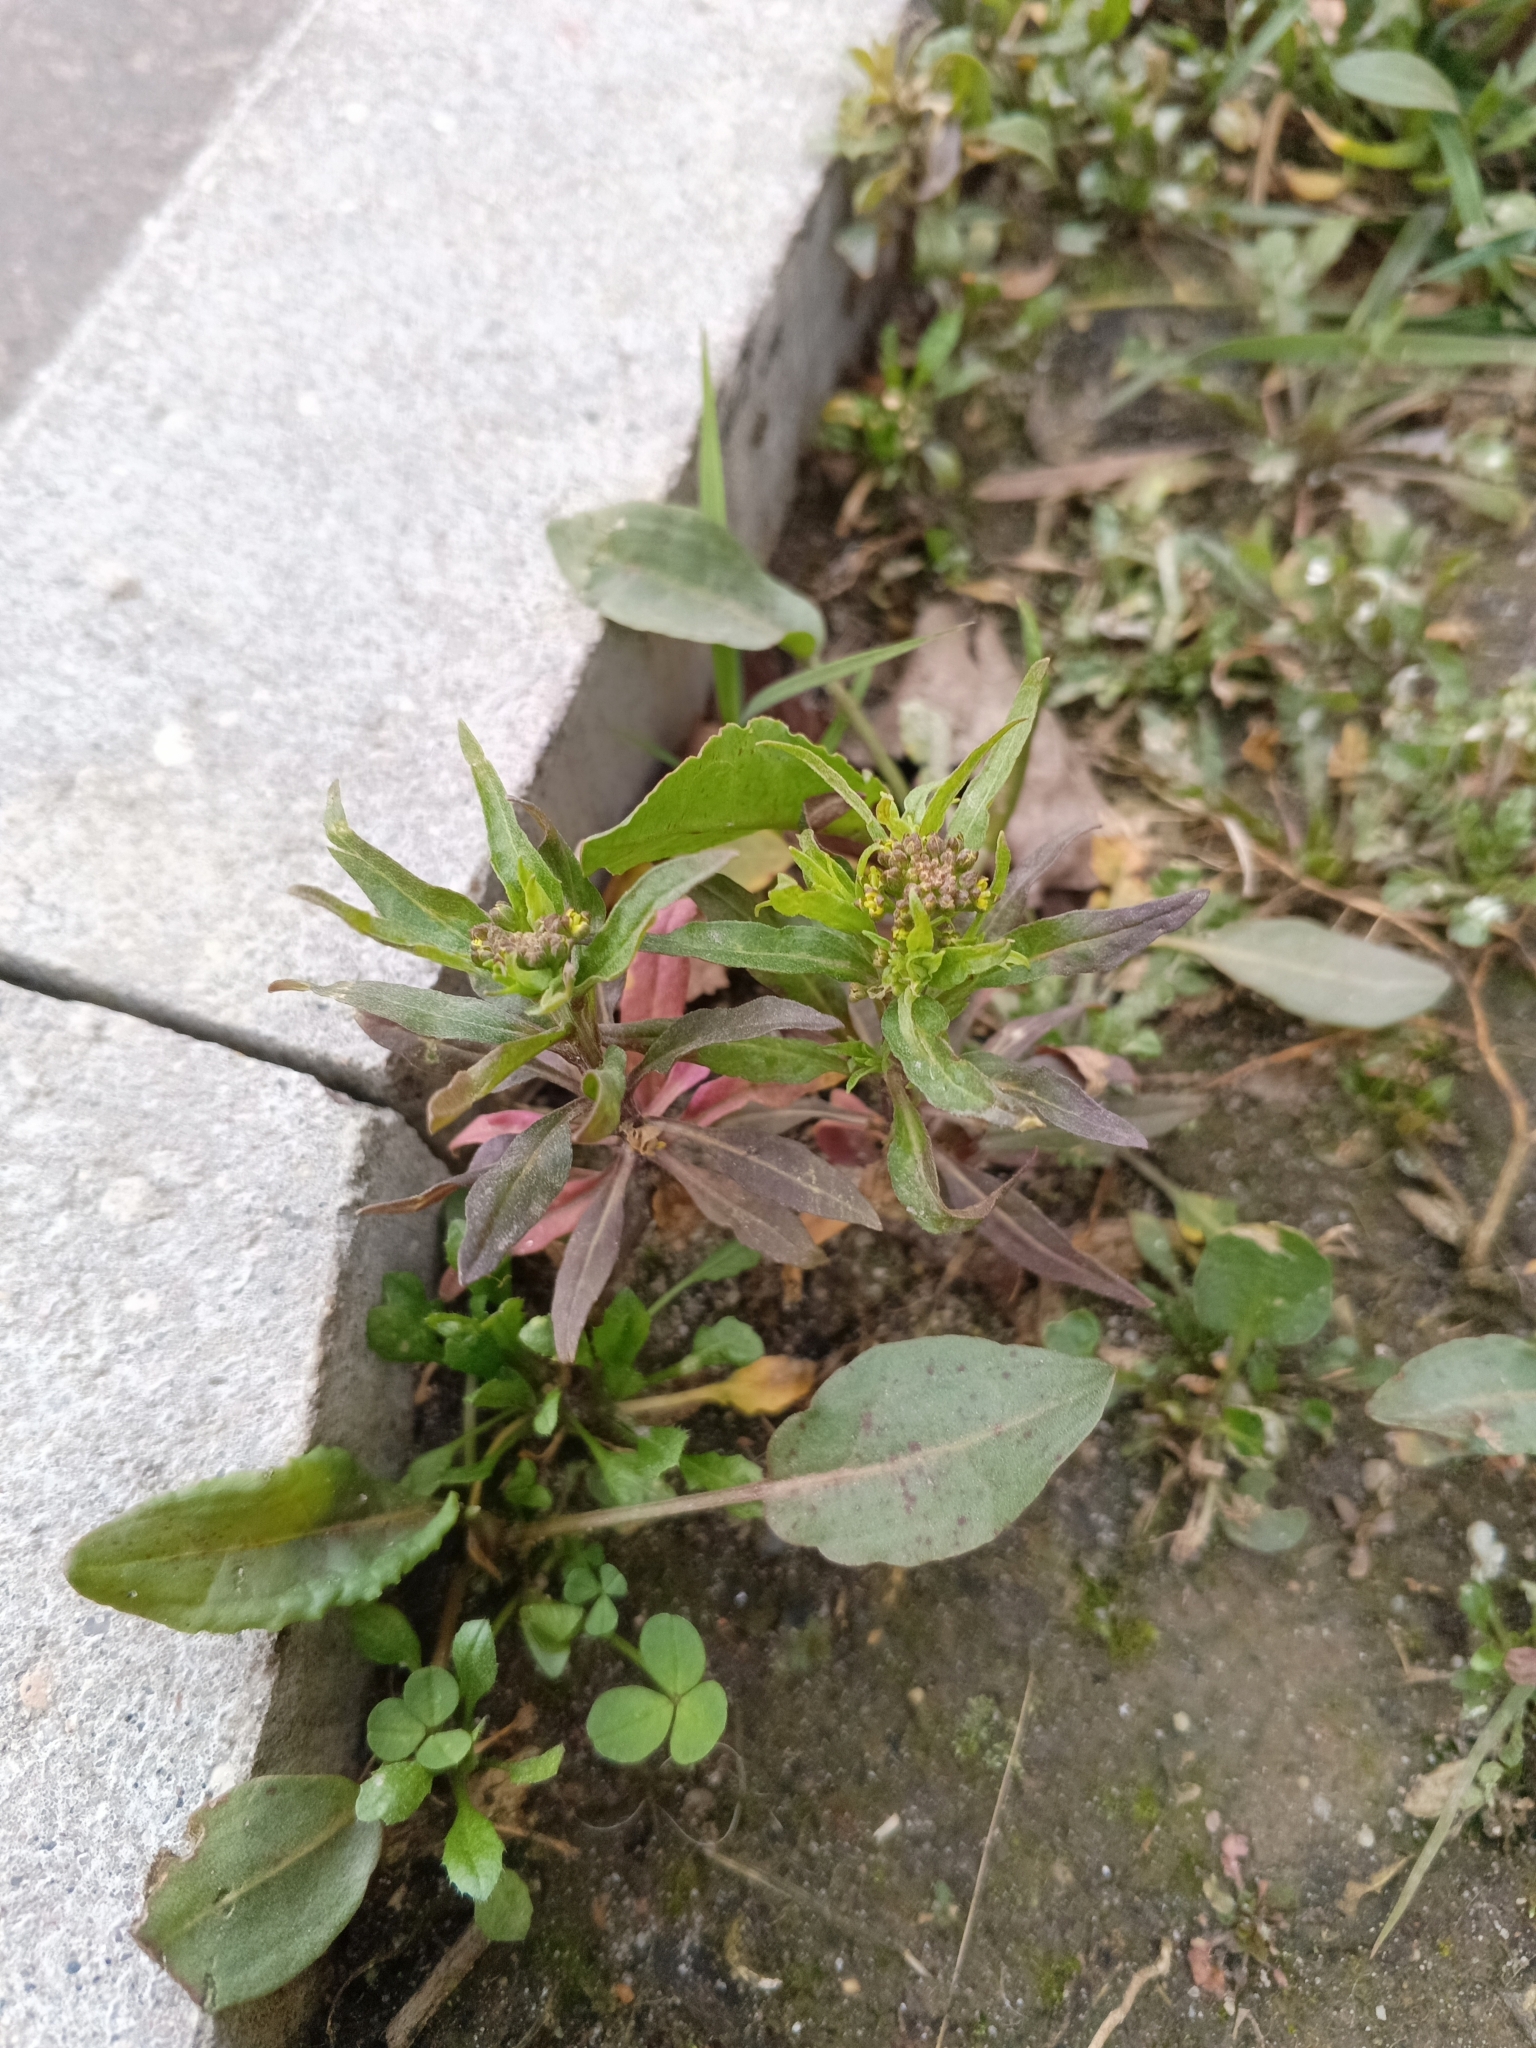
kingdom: Plantae
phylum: Tracheophyta
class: Magnoliopsida
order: Brassicales
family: Brassicaceae
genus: Erysimum
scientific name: Erysimum cheiranthoides
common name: Treacle mustard
